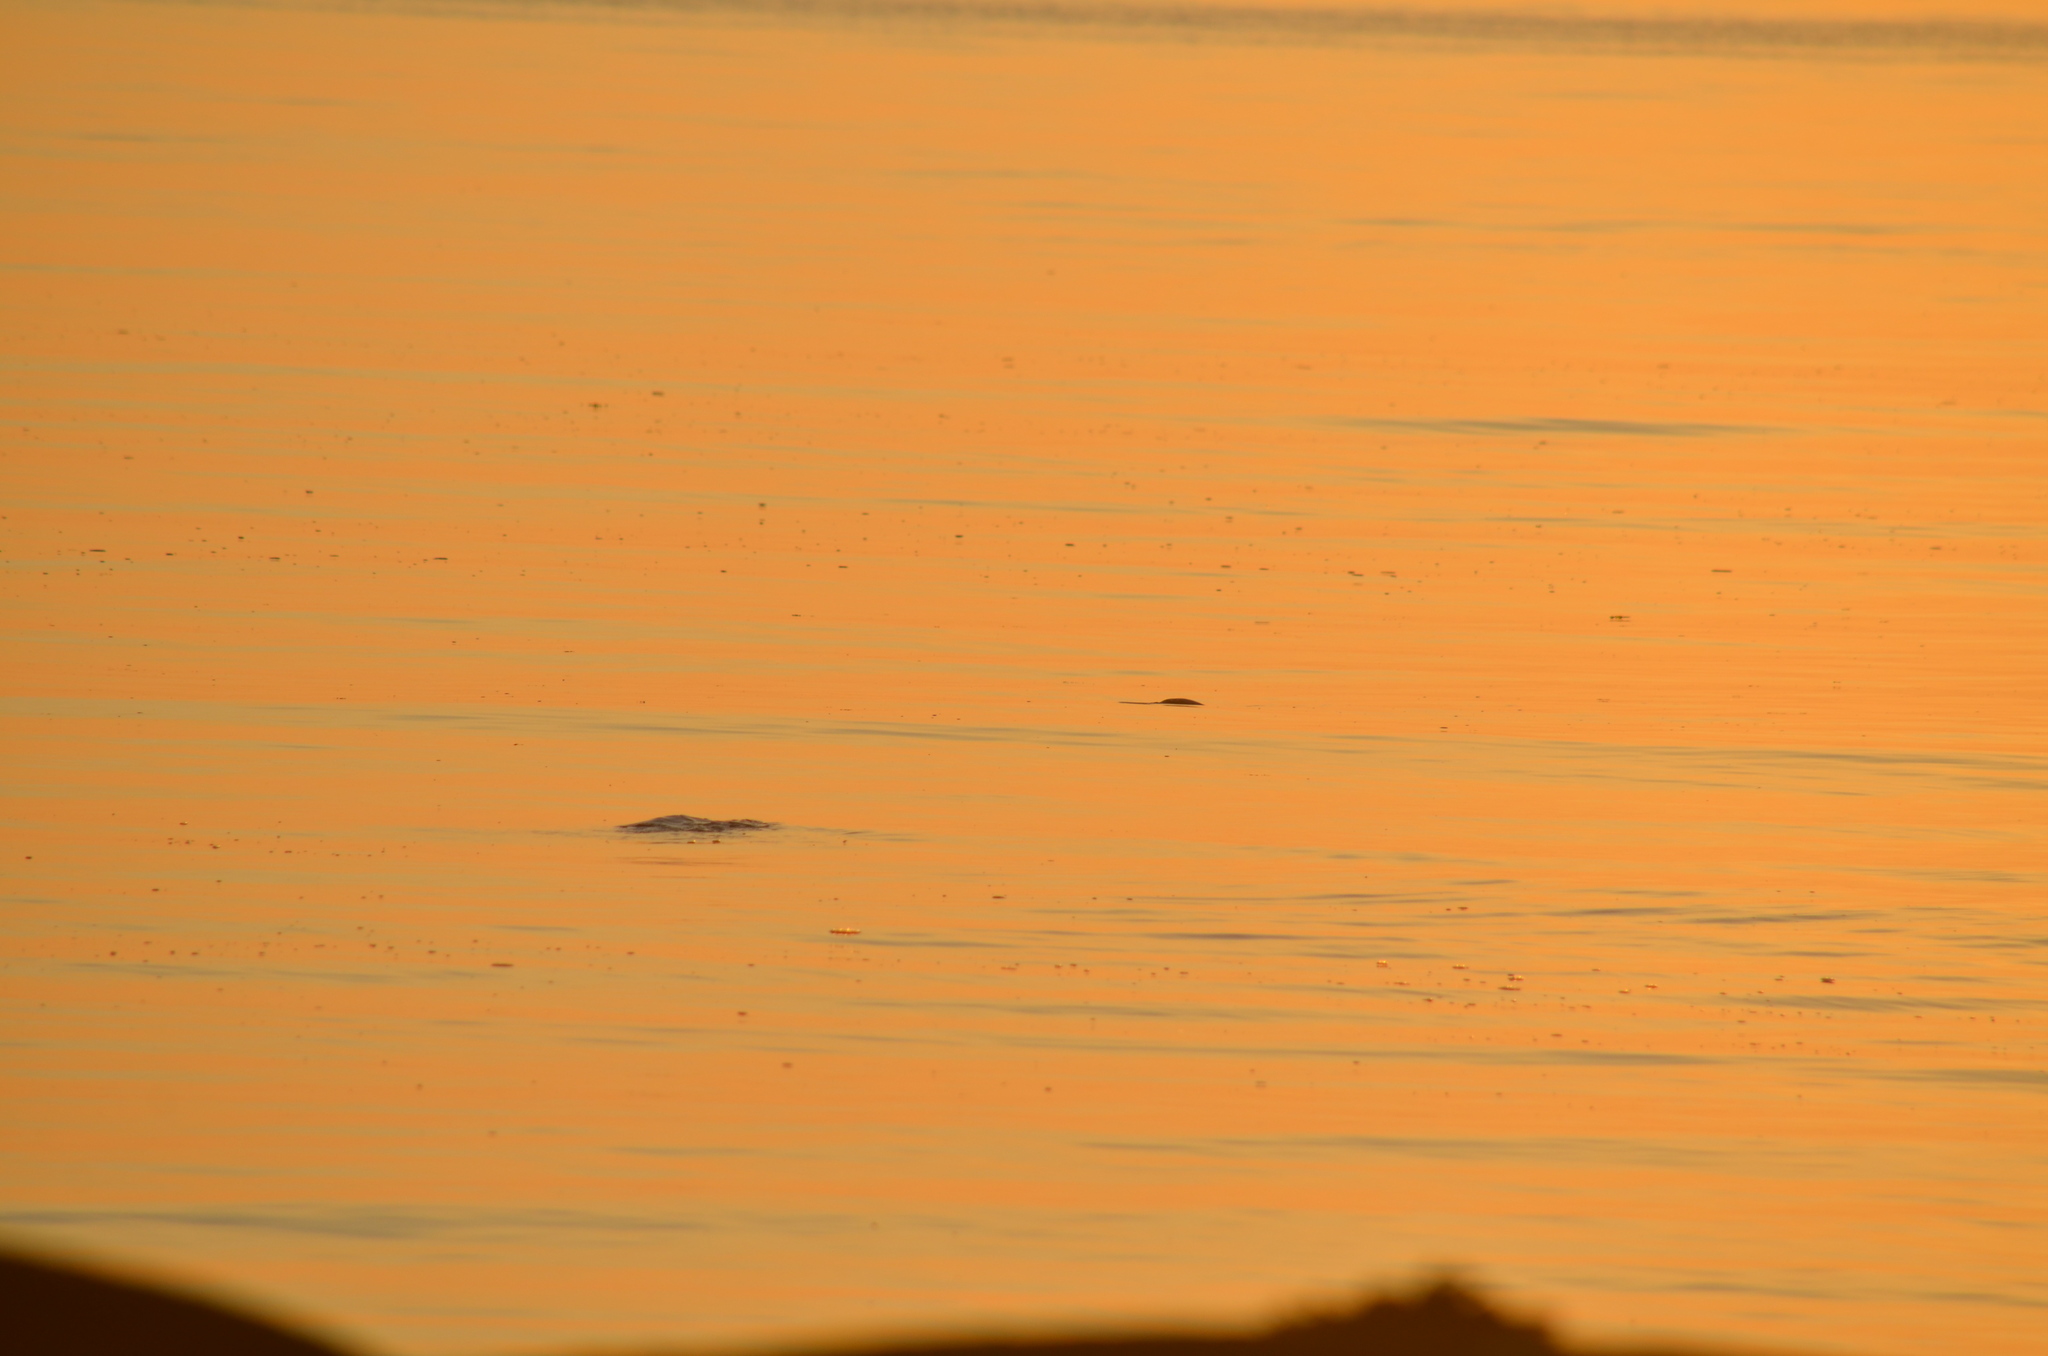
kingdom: Animalia
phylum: Chordata
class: Mammalia
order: Carnivora
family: Phocidae
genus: Phoca
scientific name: Phoca vitulina
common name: Harbor seal
